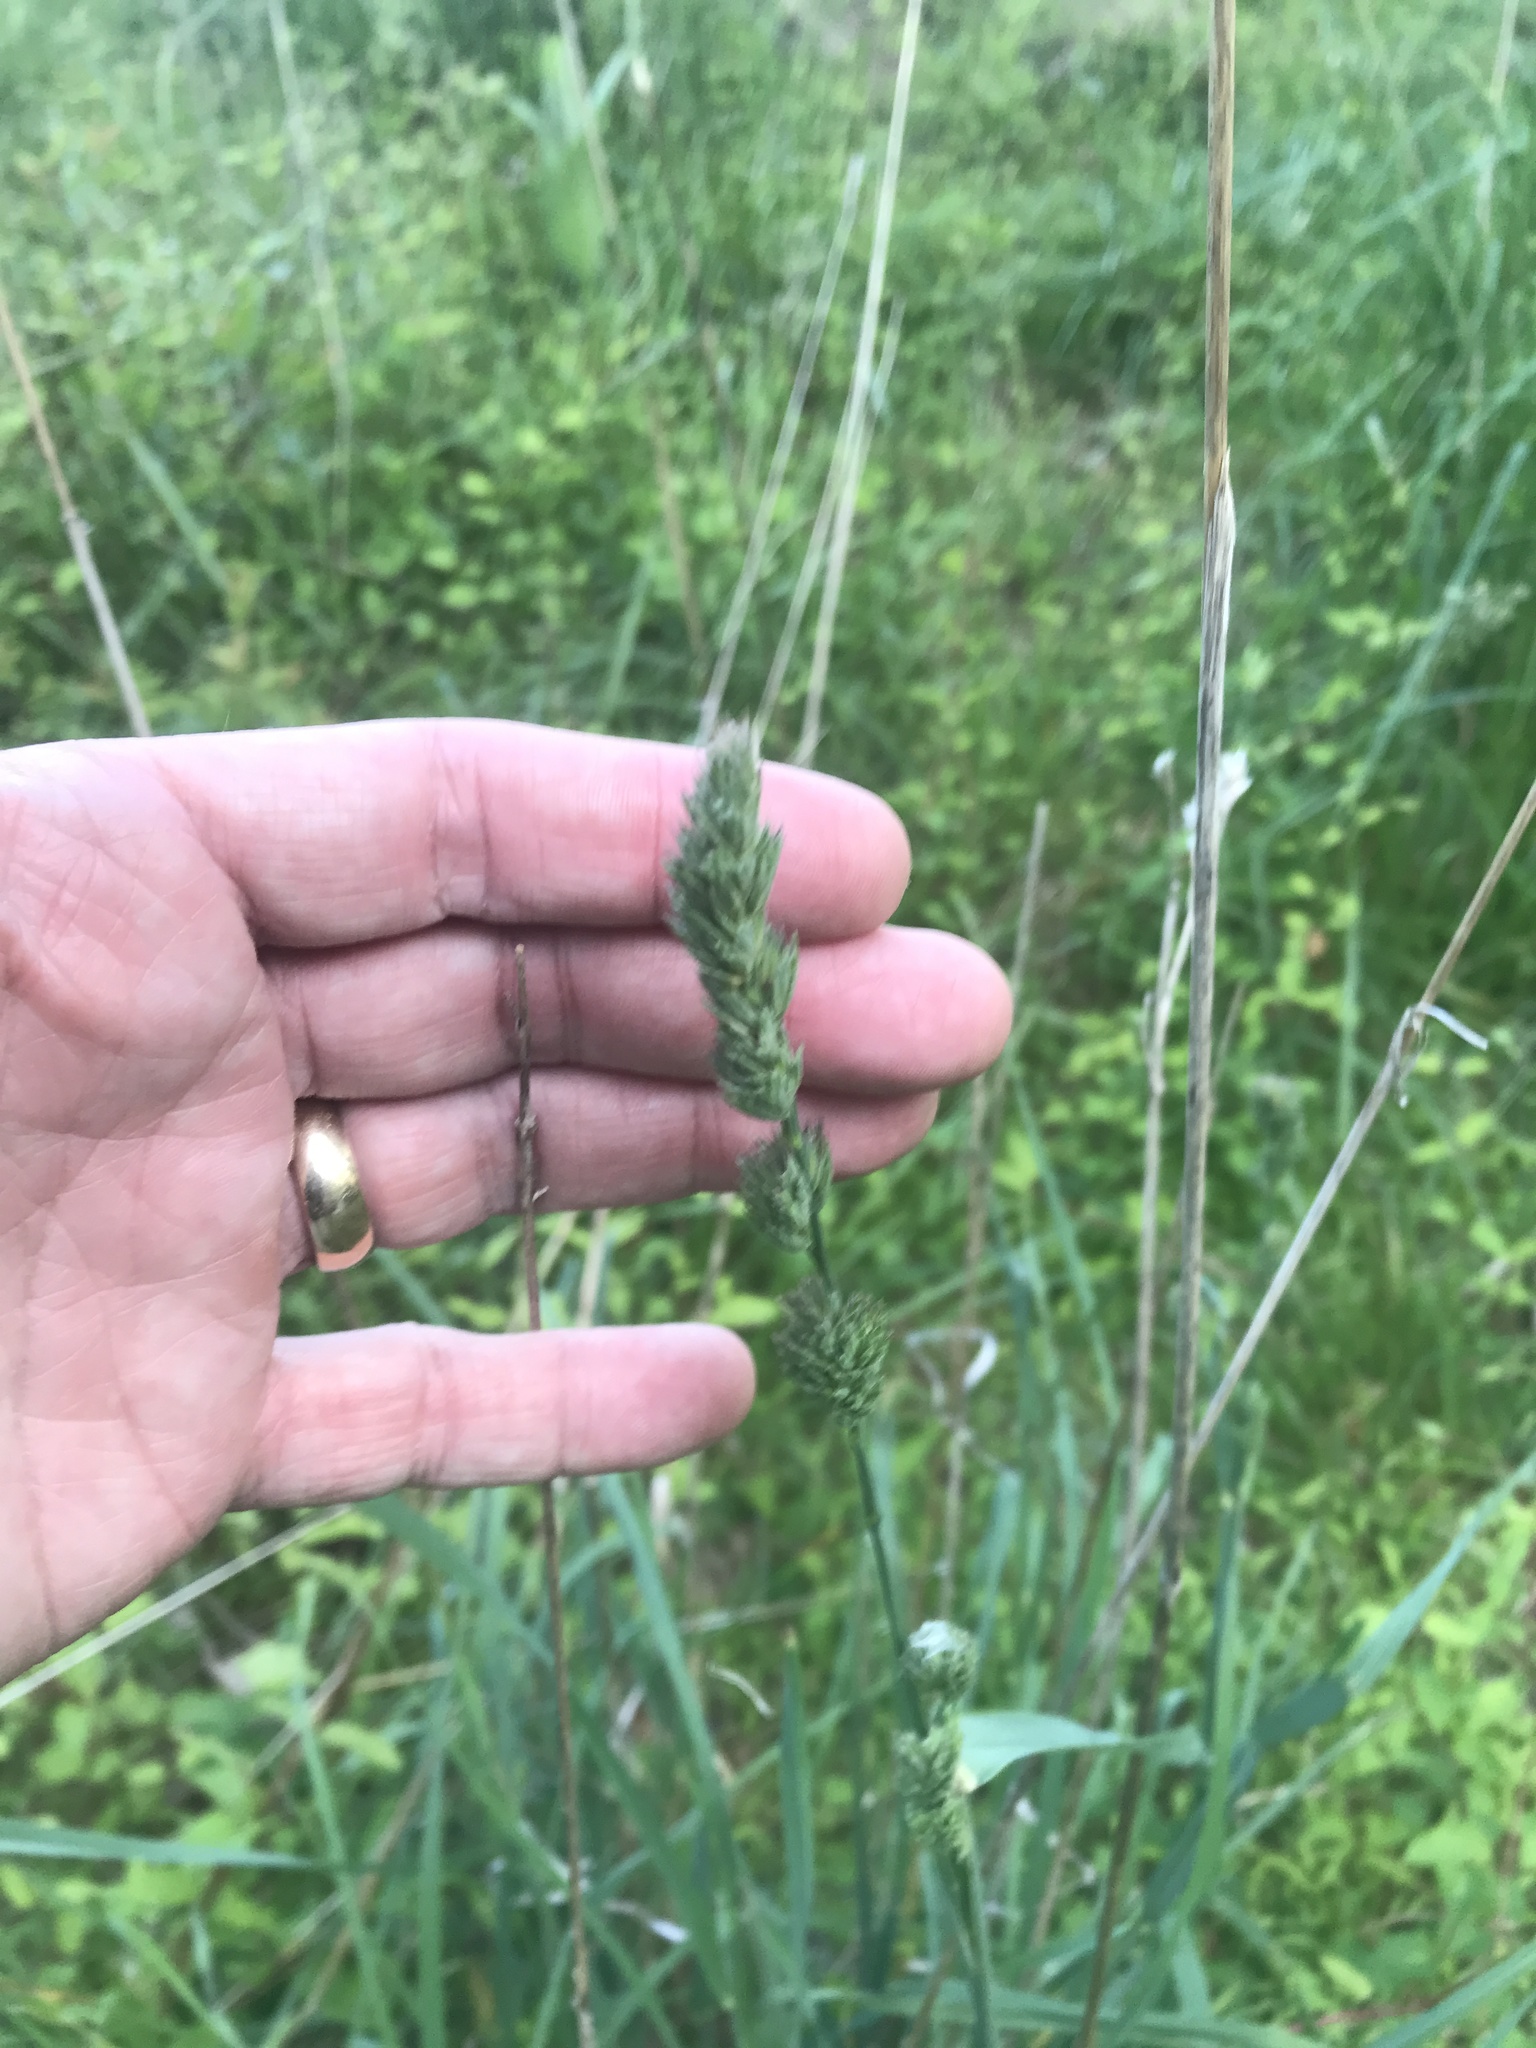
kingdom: Plantae
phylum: Tracheophyta
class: Liliopsida
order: Poales
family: Poaceae
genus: Dactylis
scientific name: Dactylis glomerata
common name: Orchardgrass
